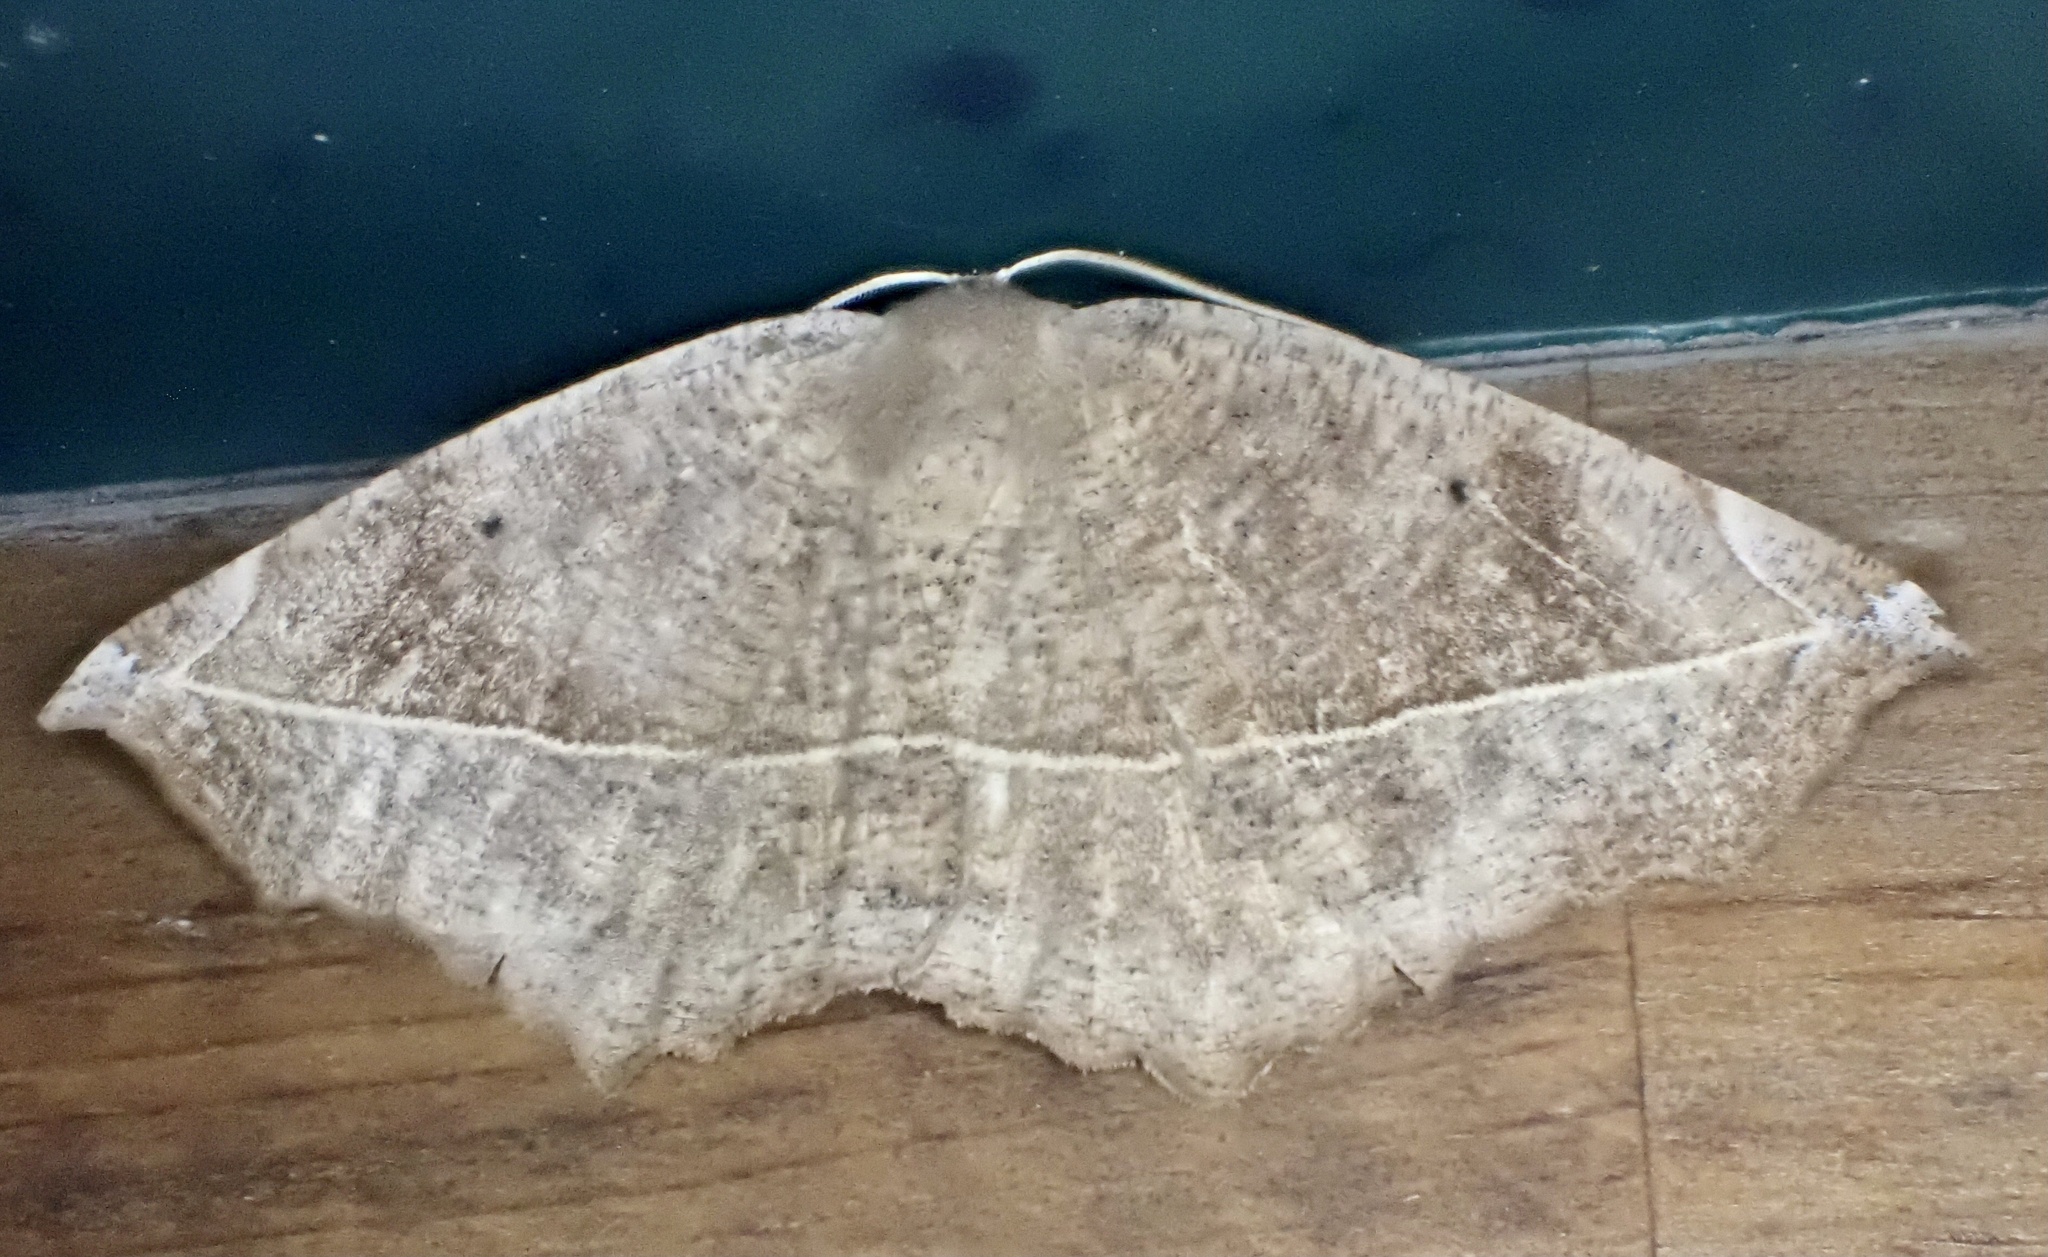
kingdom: Animalia
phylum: Arthropoda
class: Insecta
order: Lepidoptera
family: Geometridae
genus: Eutrapela
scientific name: Eutrapela clemataria
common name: Curved-toothed geometer
